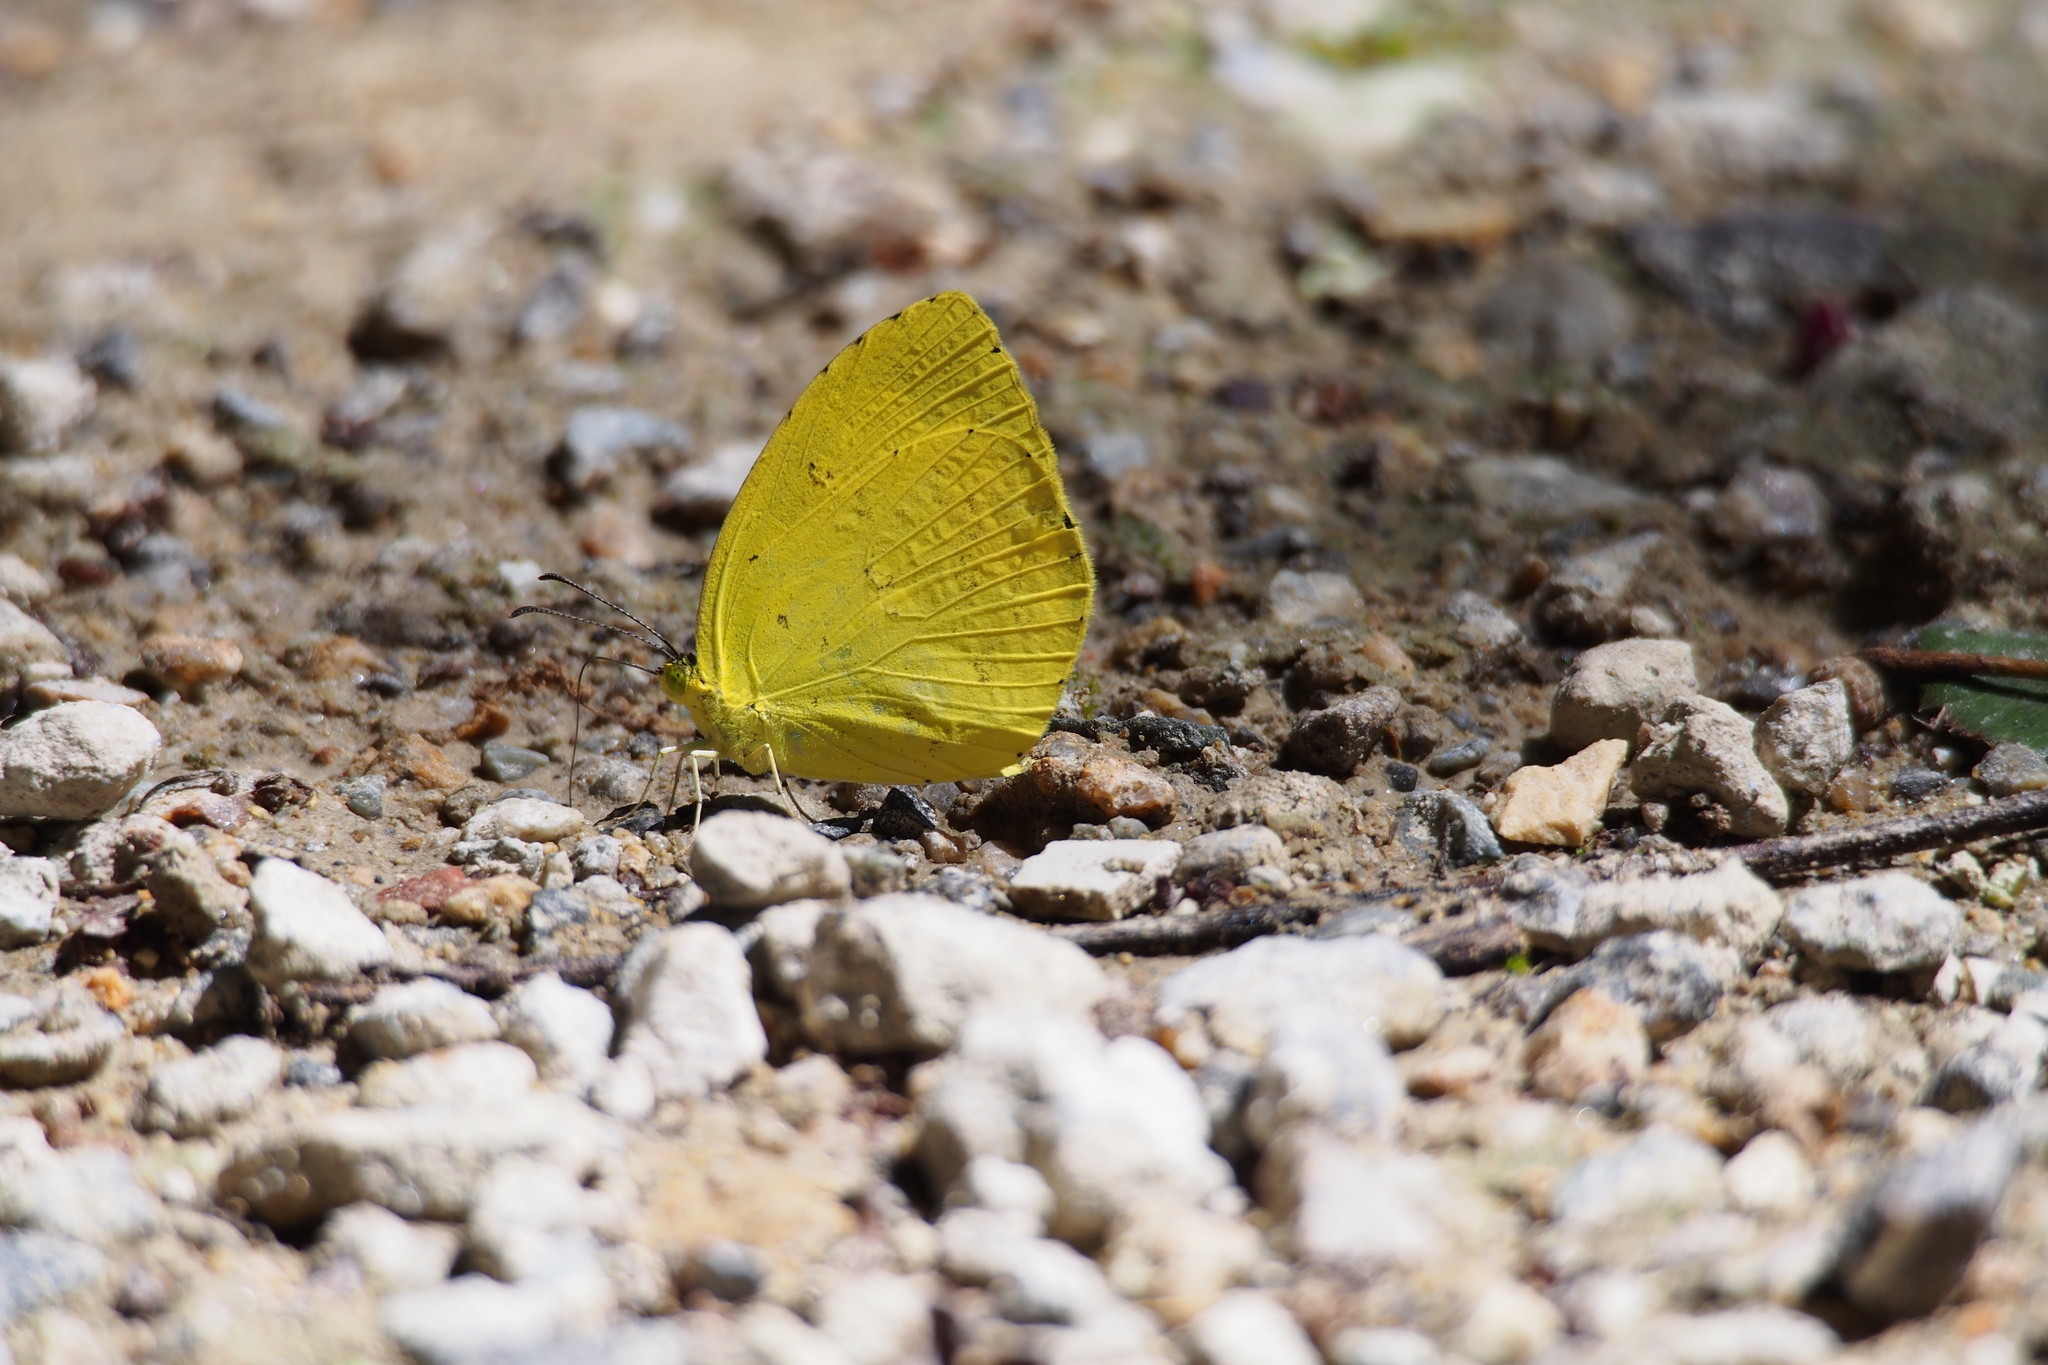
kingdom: Animalia
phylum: Arthropoda
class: Insecta
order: Lepidoptera
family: Pieridae
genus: Eurema
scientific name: Eurema mandarina
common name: Japanese common grass yellow
